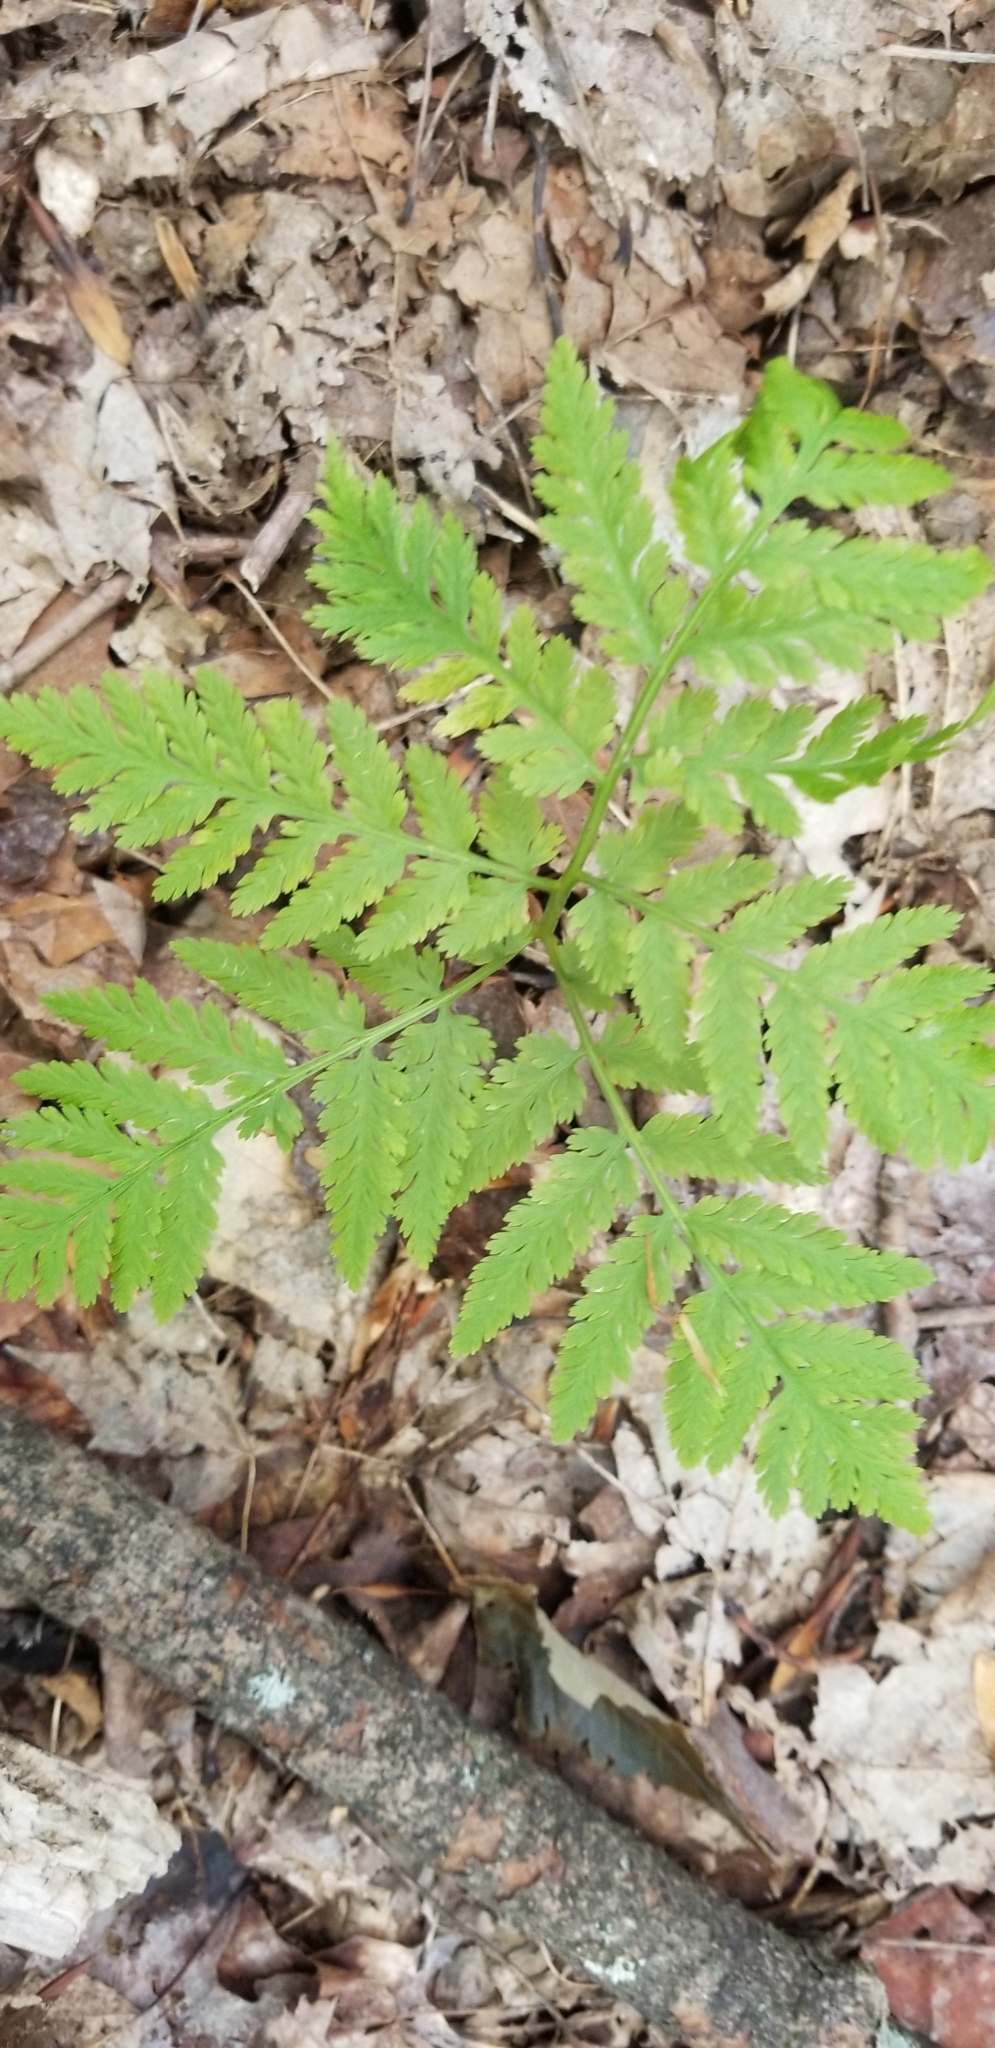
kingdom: Plantae
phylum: Tracheophyta
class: Polypodiopsida
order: Ophioglossales
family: Ophioglossaceae
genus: Botrypus
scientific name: Botrypus virginianus
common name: Common grapefern
